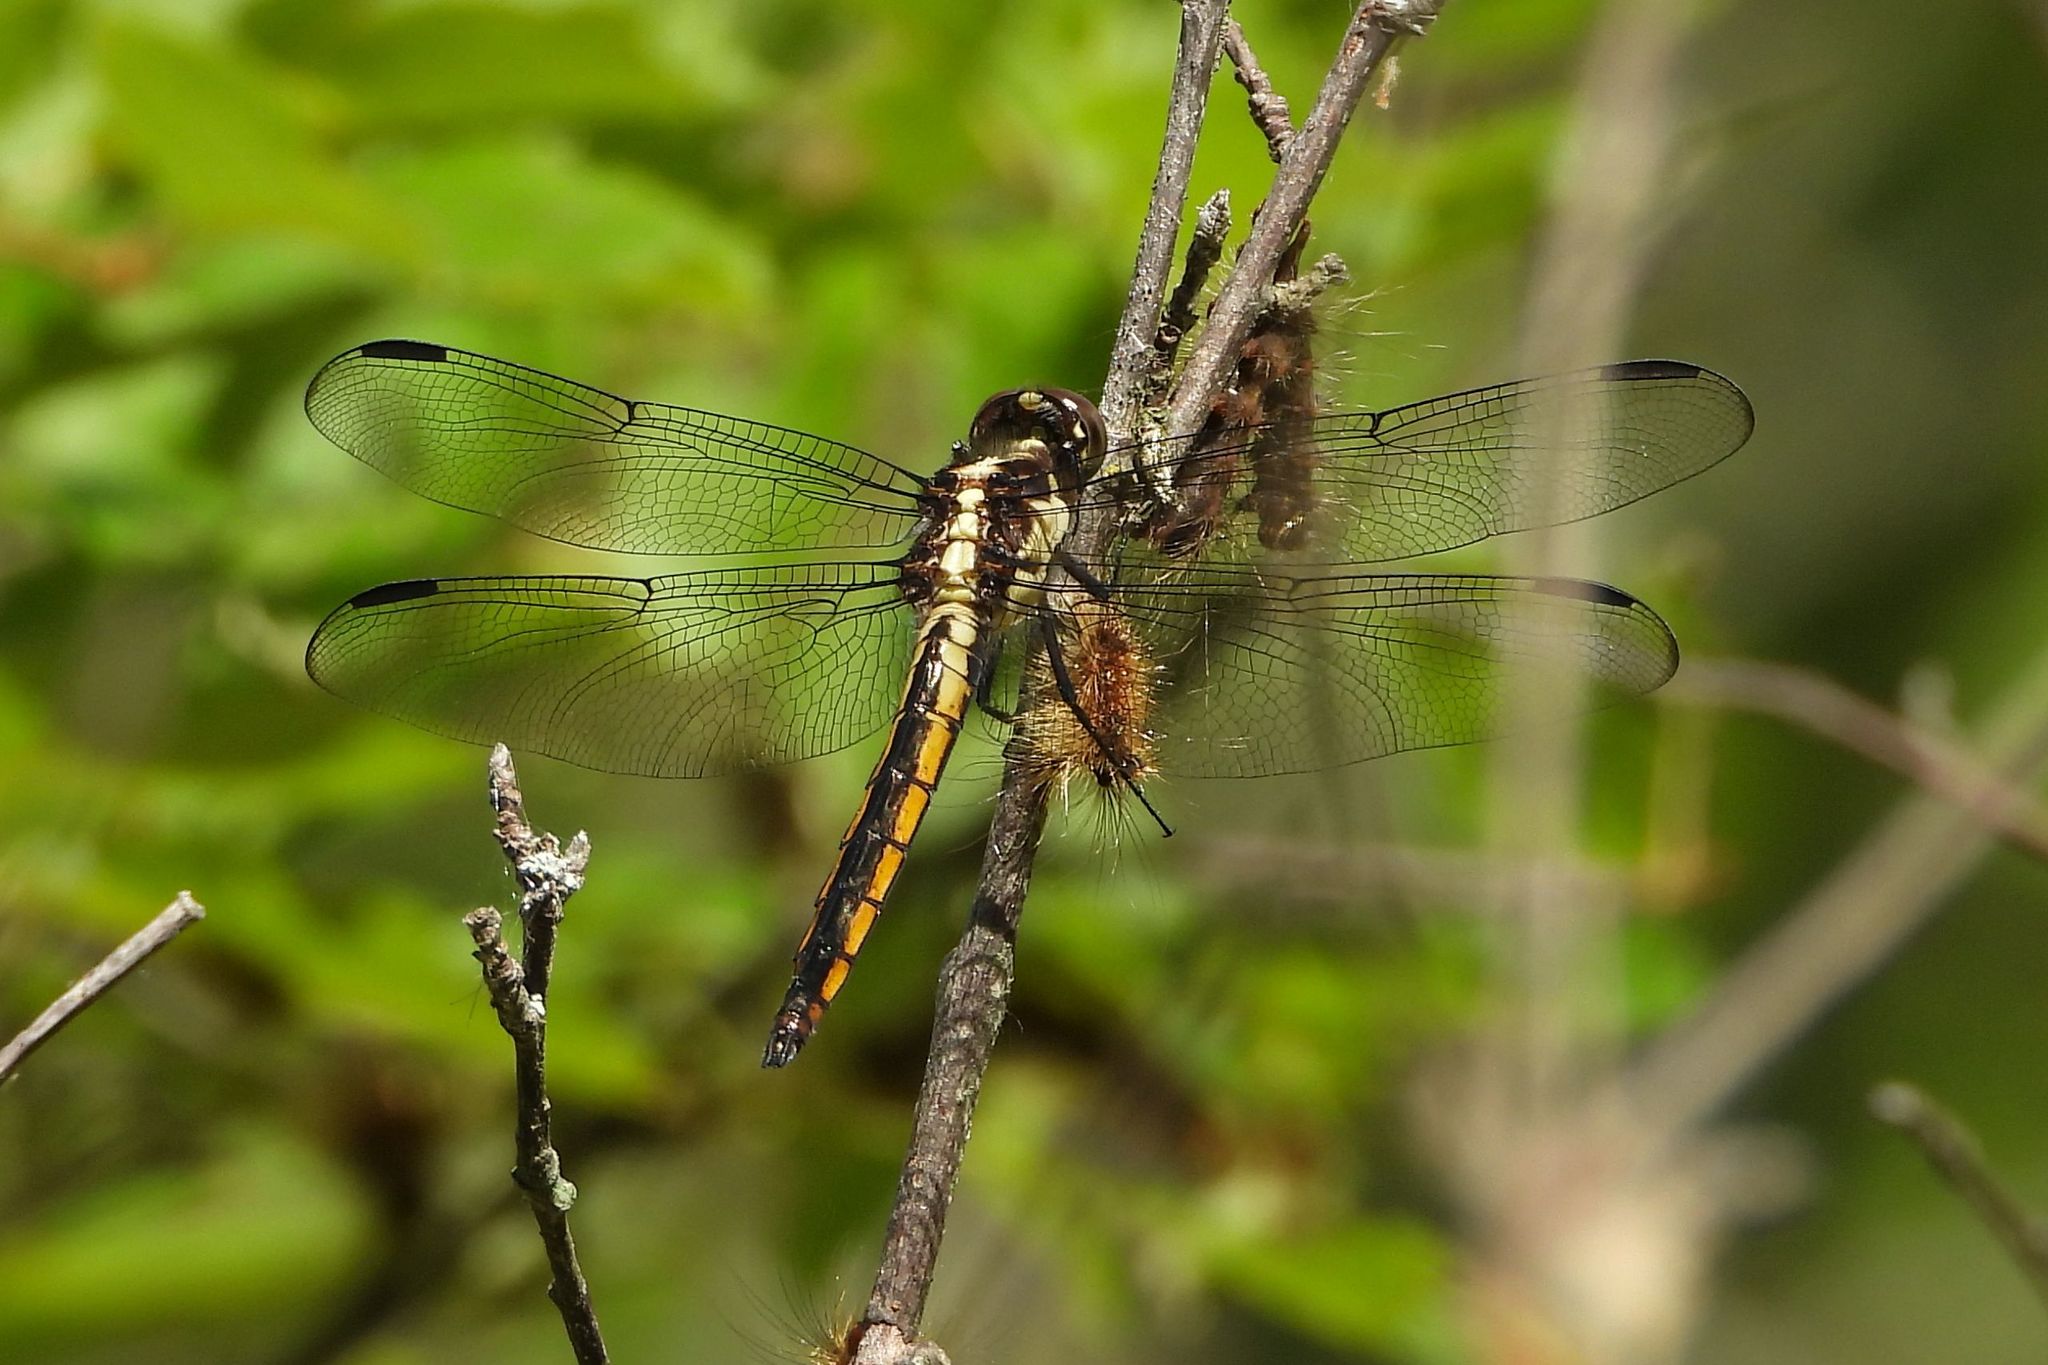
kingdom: Animalia
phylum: Arthropoda
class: Insecta
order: Odonata
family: Libellulidae
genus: Libellula
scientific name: Libellula incesta
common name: Slaty skimmer
